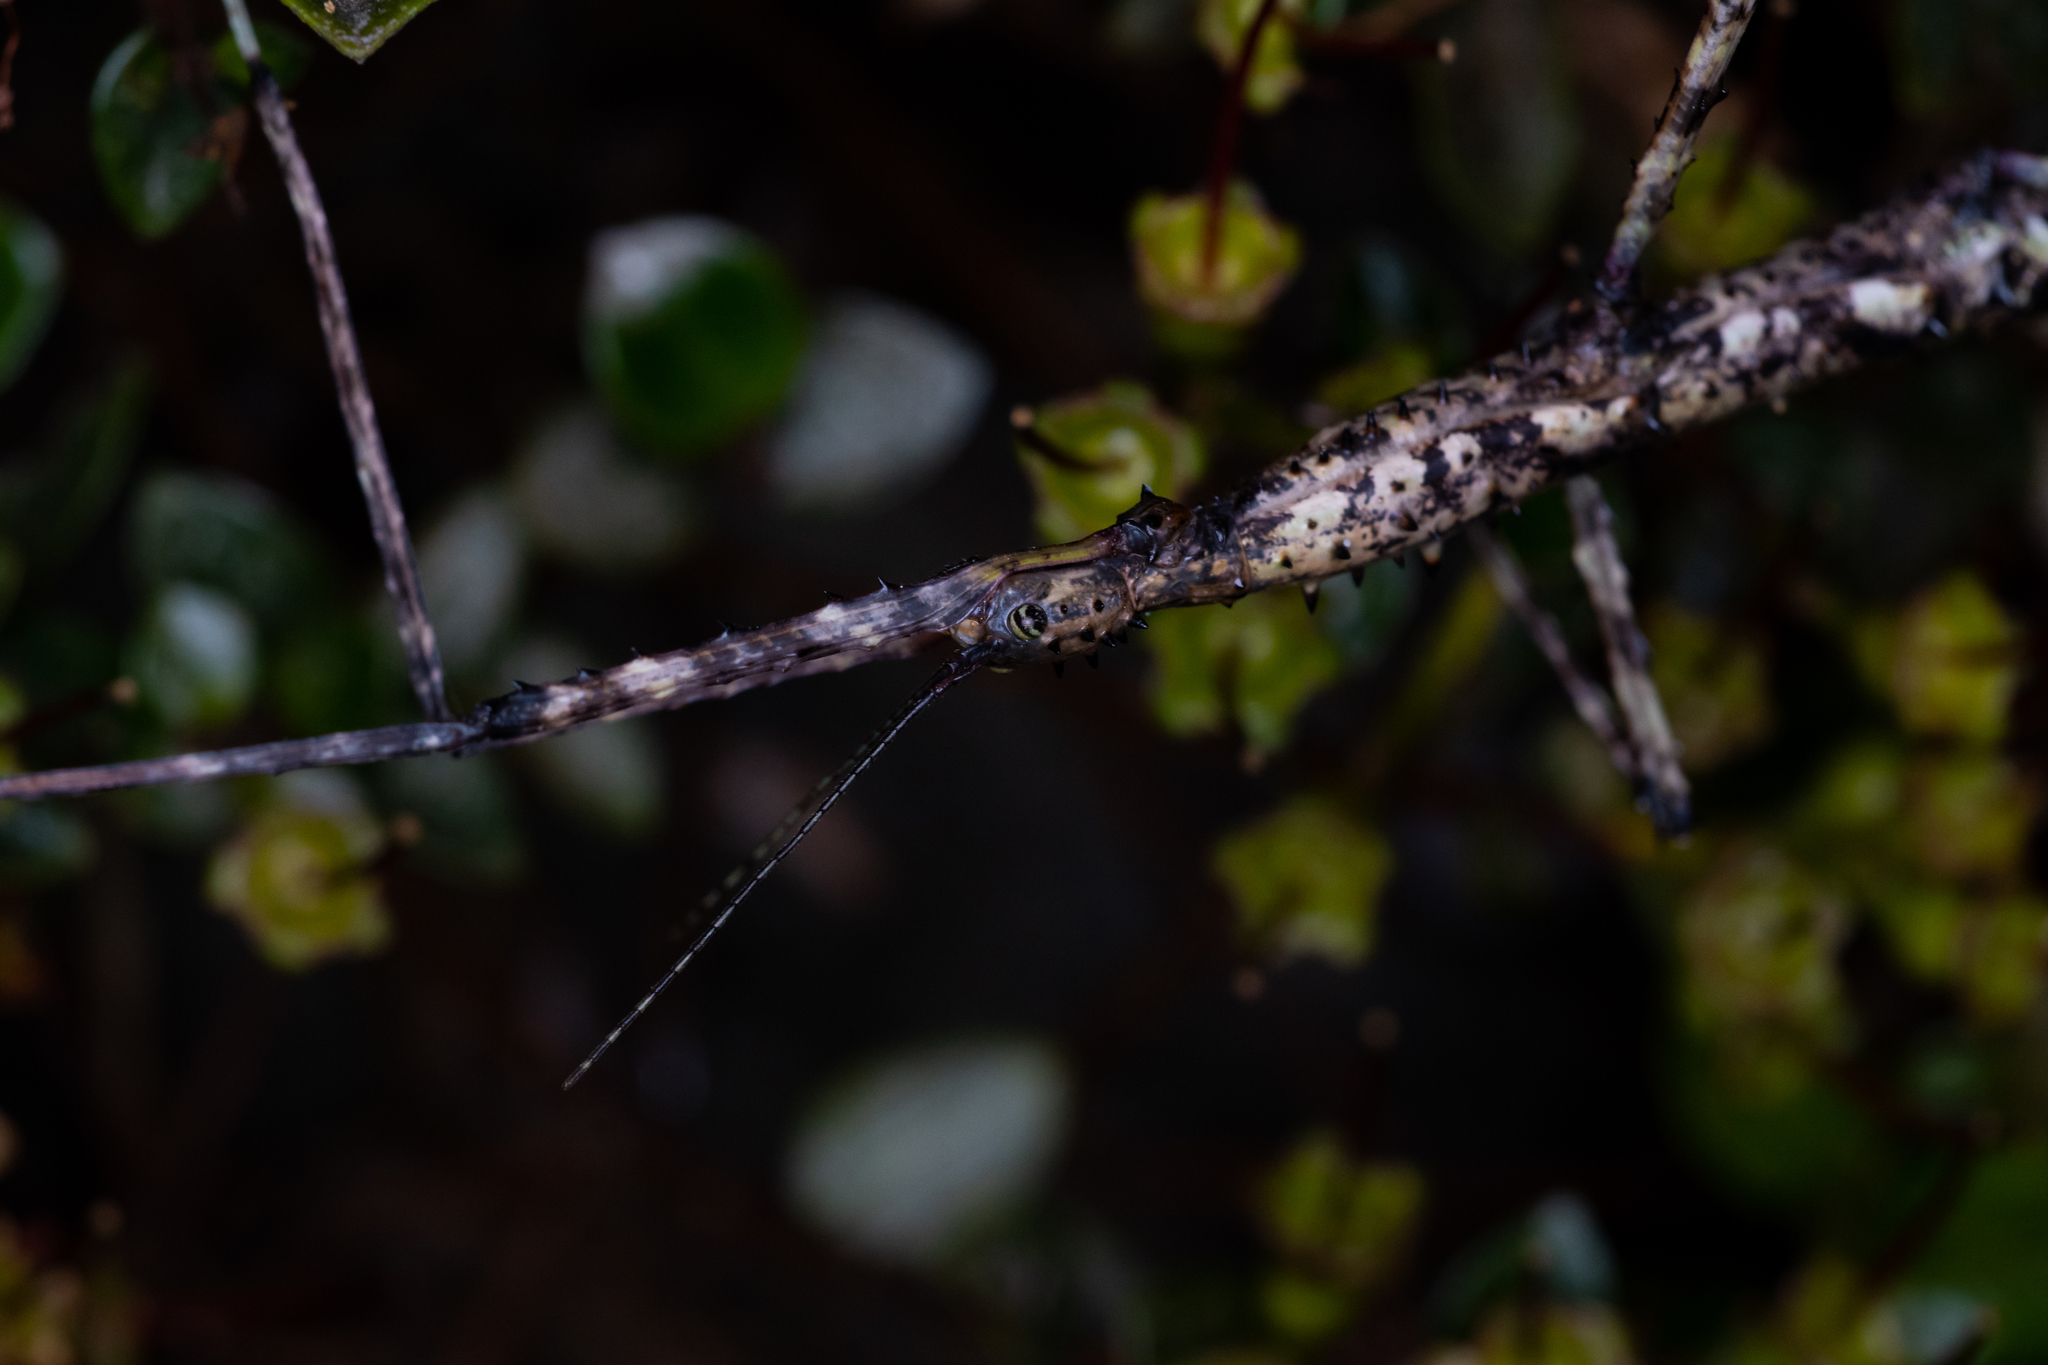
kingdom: Animalia
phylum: Arthropoda
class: Insecta
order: Phasmida
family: Phasmatidae
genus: Acanthoxyla
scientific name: Acanthoxyla prasina
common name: Black-spined stick insect
